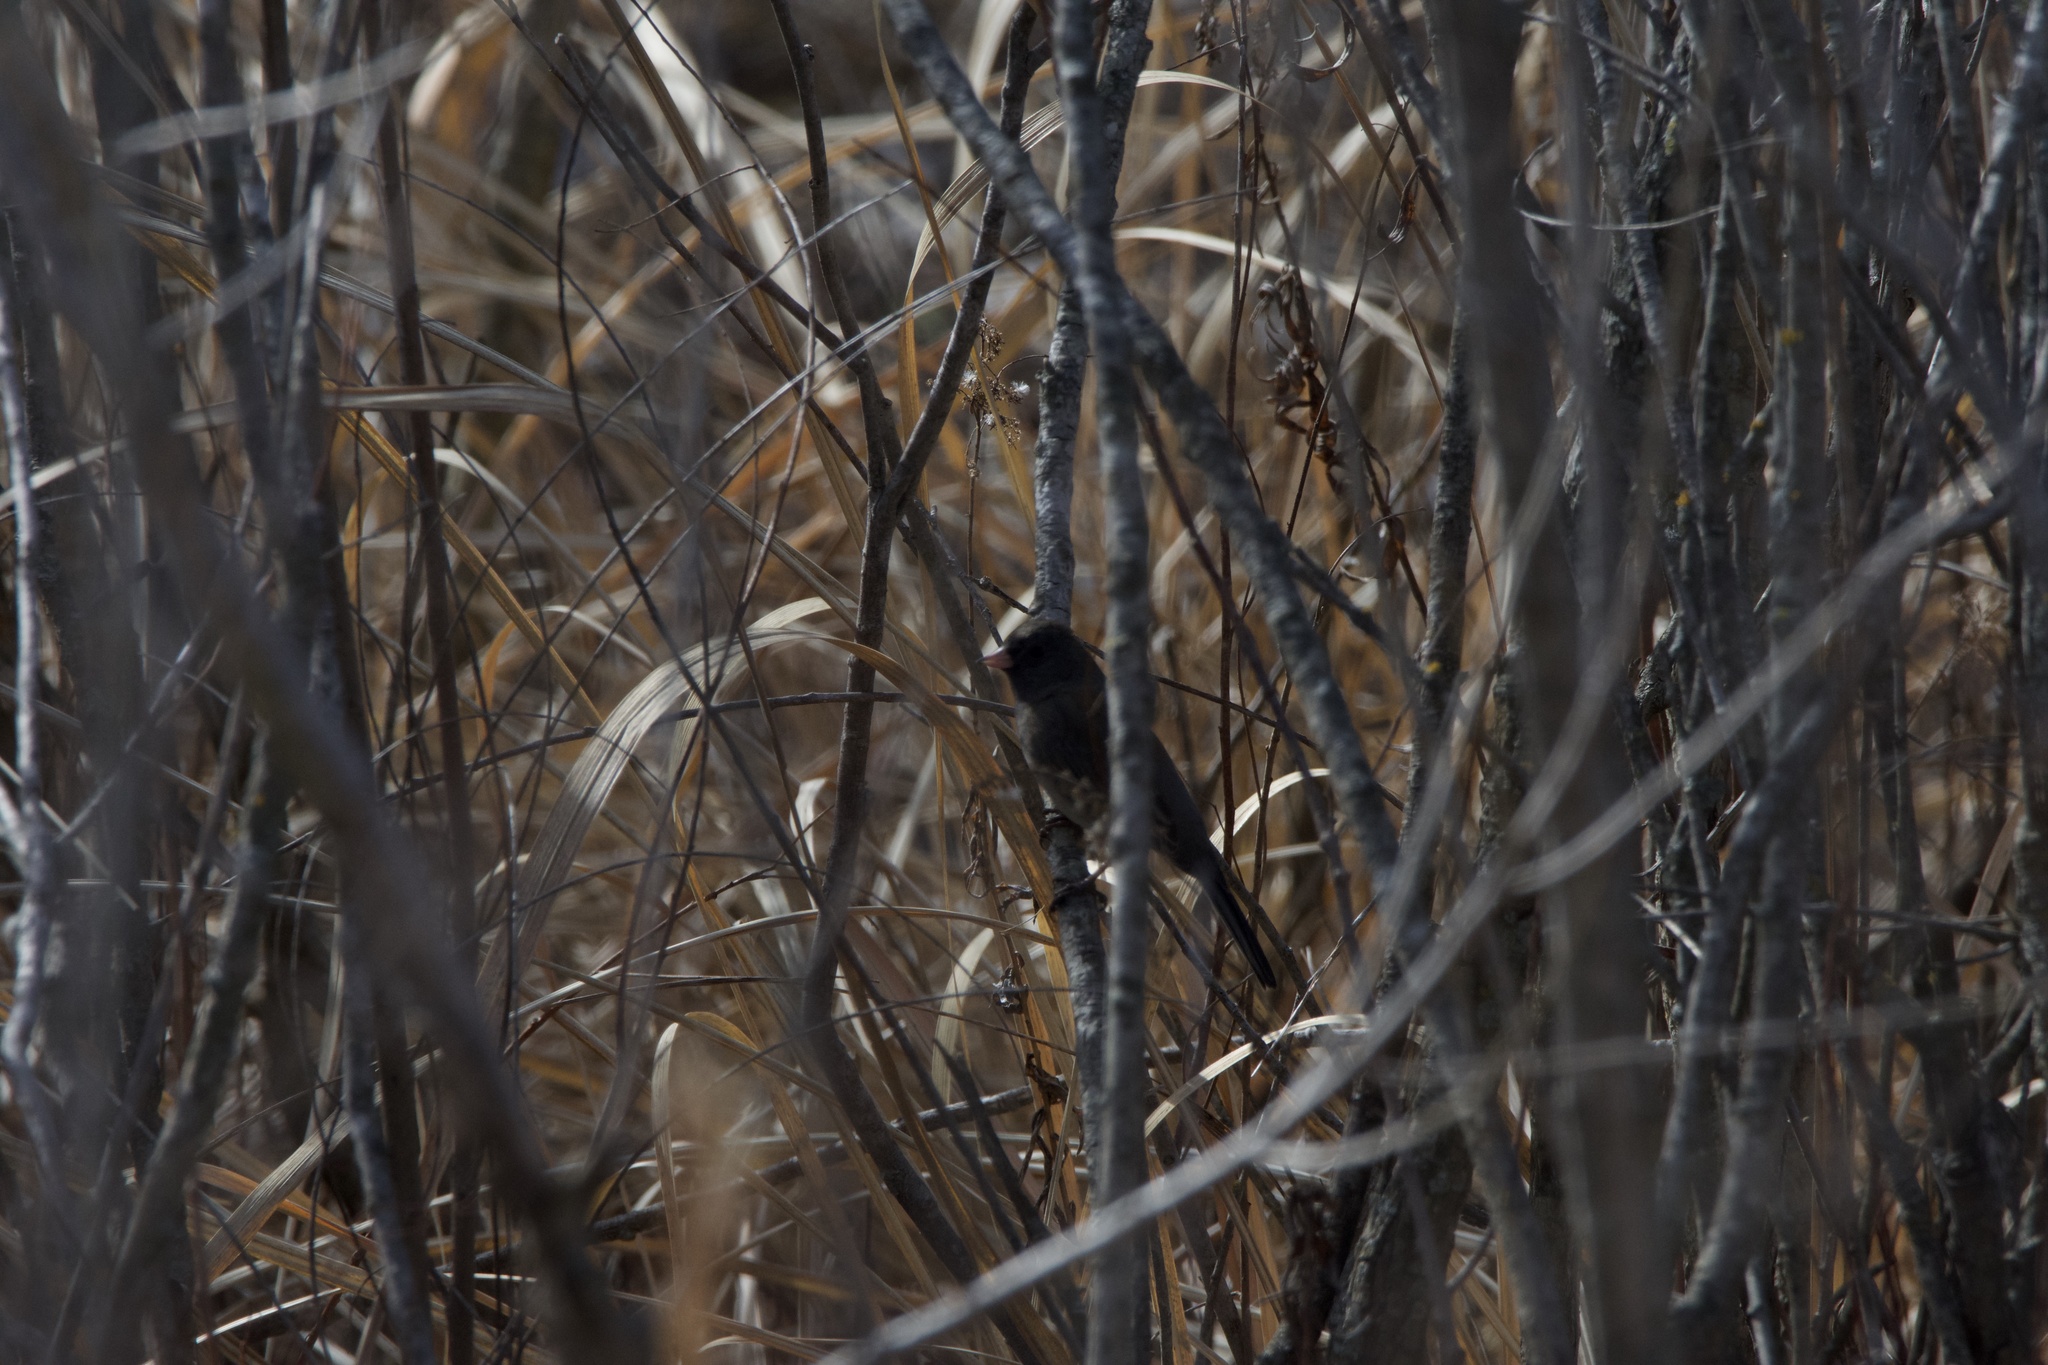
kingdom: Animalia
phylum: Chordata
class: Aves
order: Passeriformes
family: Passerellidae
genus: Junco
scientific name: Junco hyemalis
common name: Dark-eyed junco
